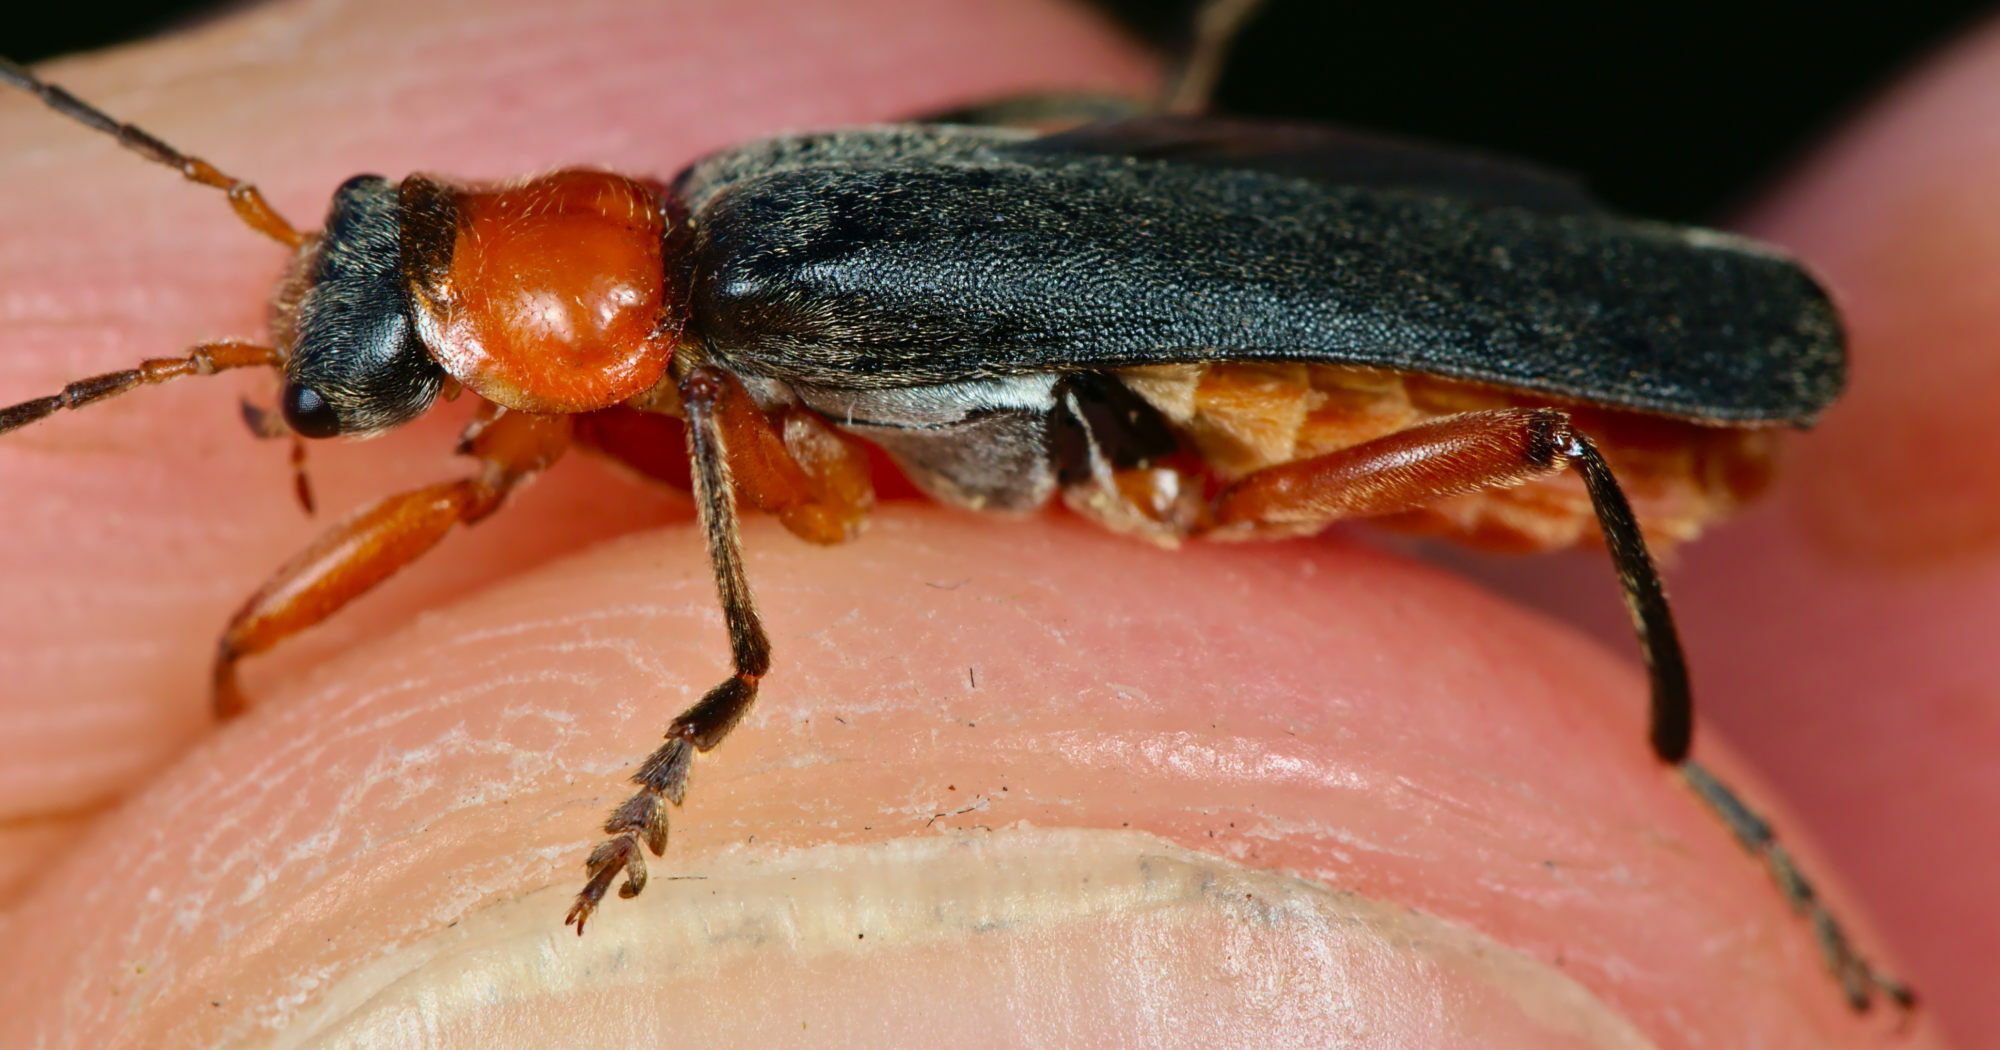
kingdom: Animalia
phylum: Arthropoda
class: Insecta
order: Coleoptera
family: Cantharidae
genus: Cantharis
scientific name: Cantharis pellucida
